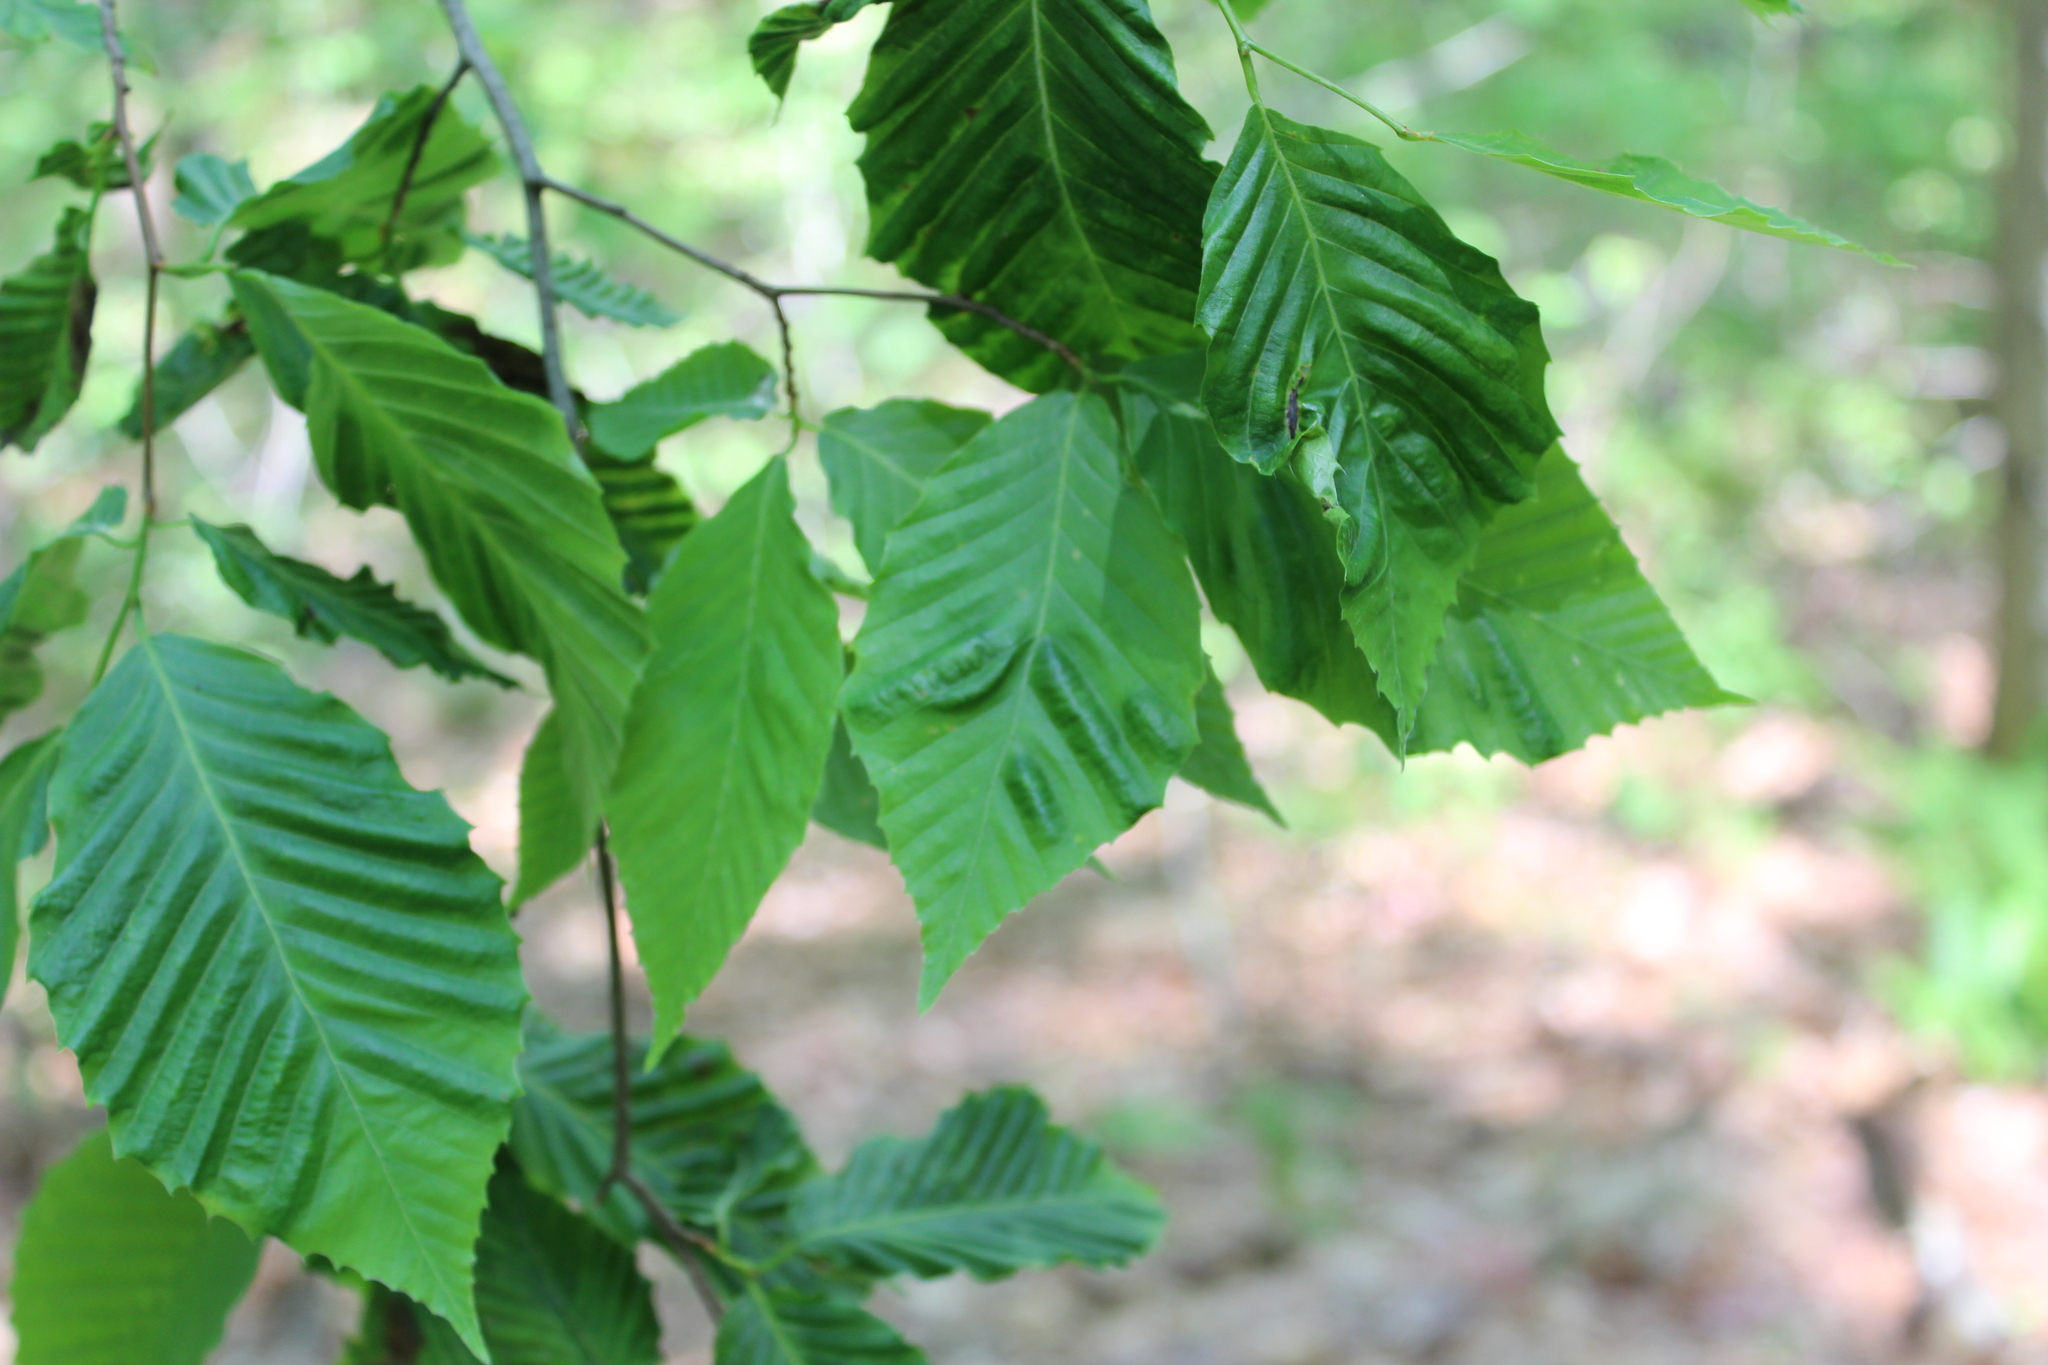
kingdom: Animalia
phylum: Nematoda
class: Chromadorea
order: Rhabditida
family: Anguinidae
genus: Litylenchus
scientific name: Litylenchus crenatae
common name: Beech leaf disease
